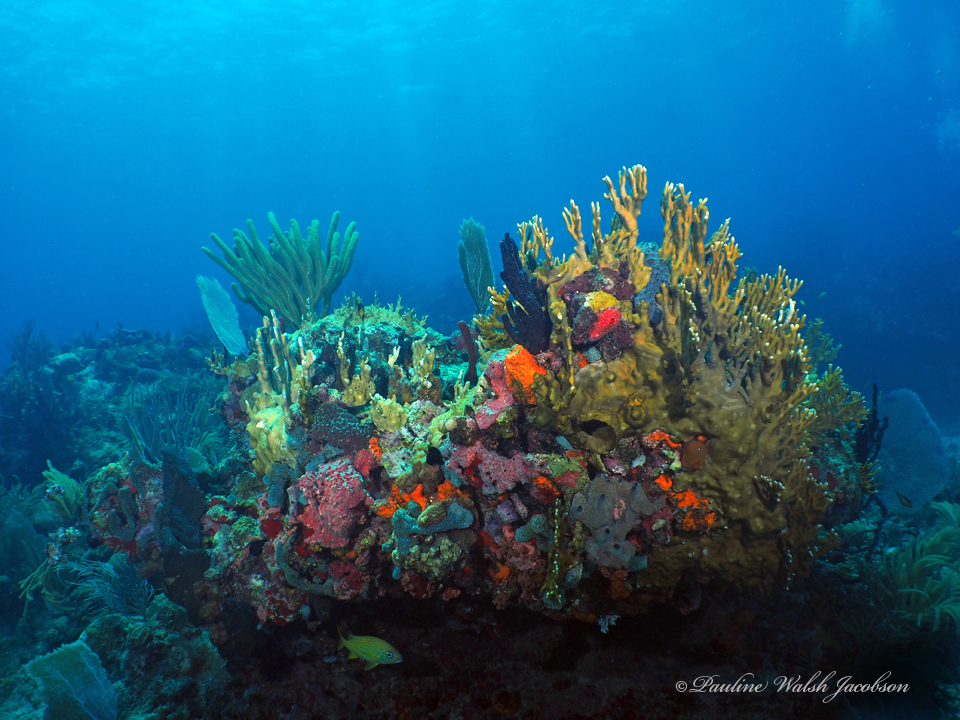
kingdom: Animalia
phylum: Chordata
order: Perciformes
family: Haemulidae
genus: Haemulon
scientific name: Haemulon flavolineatum
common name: French grunt
